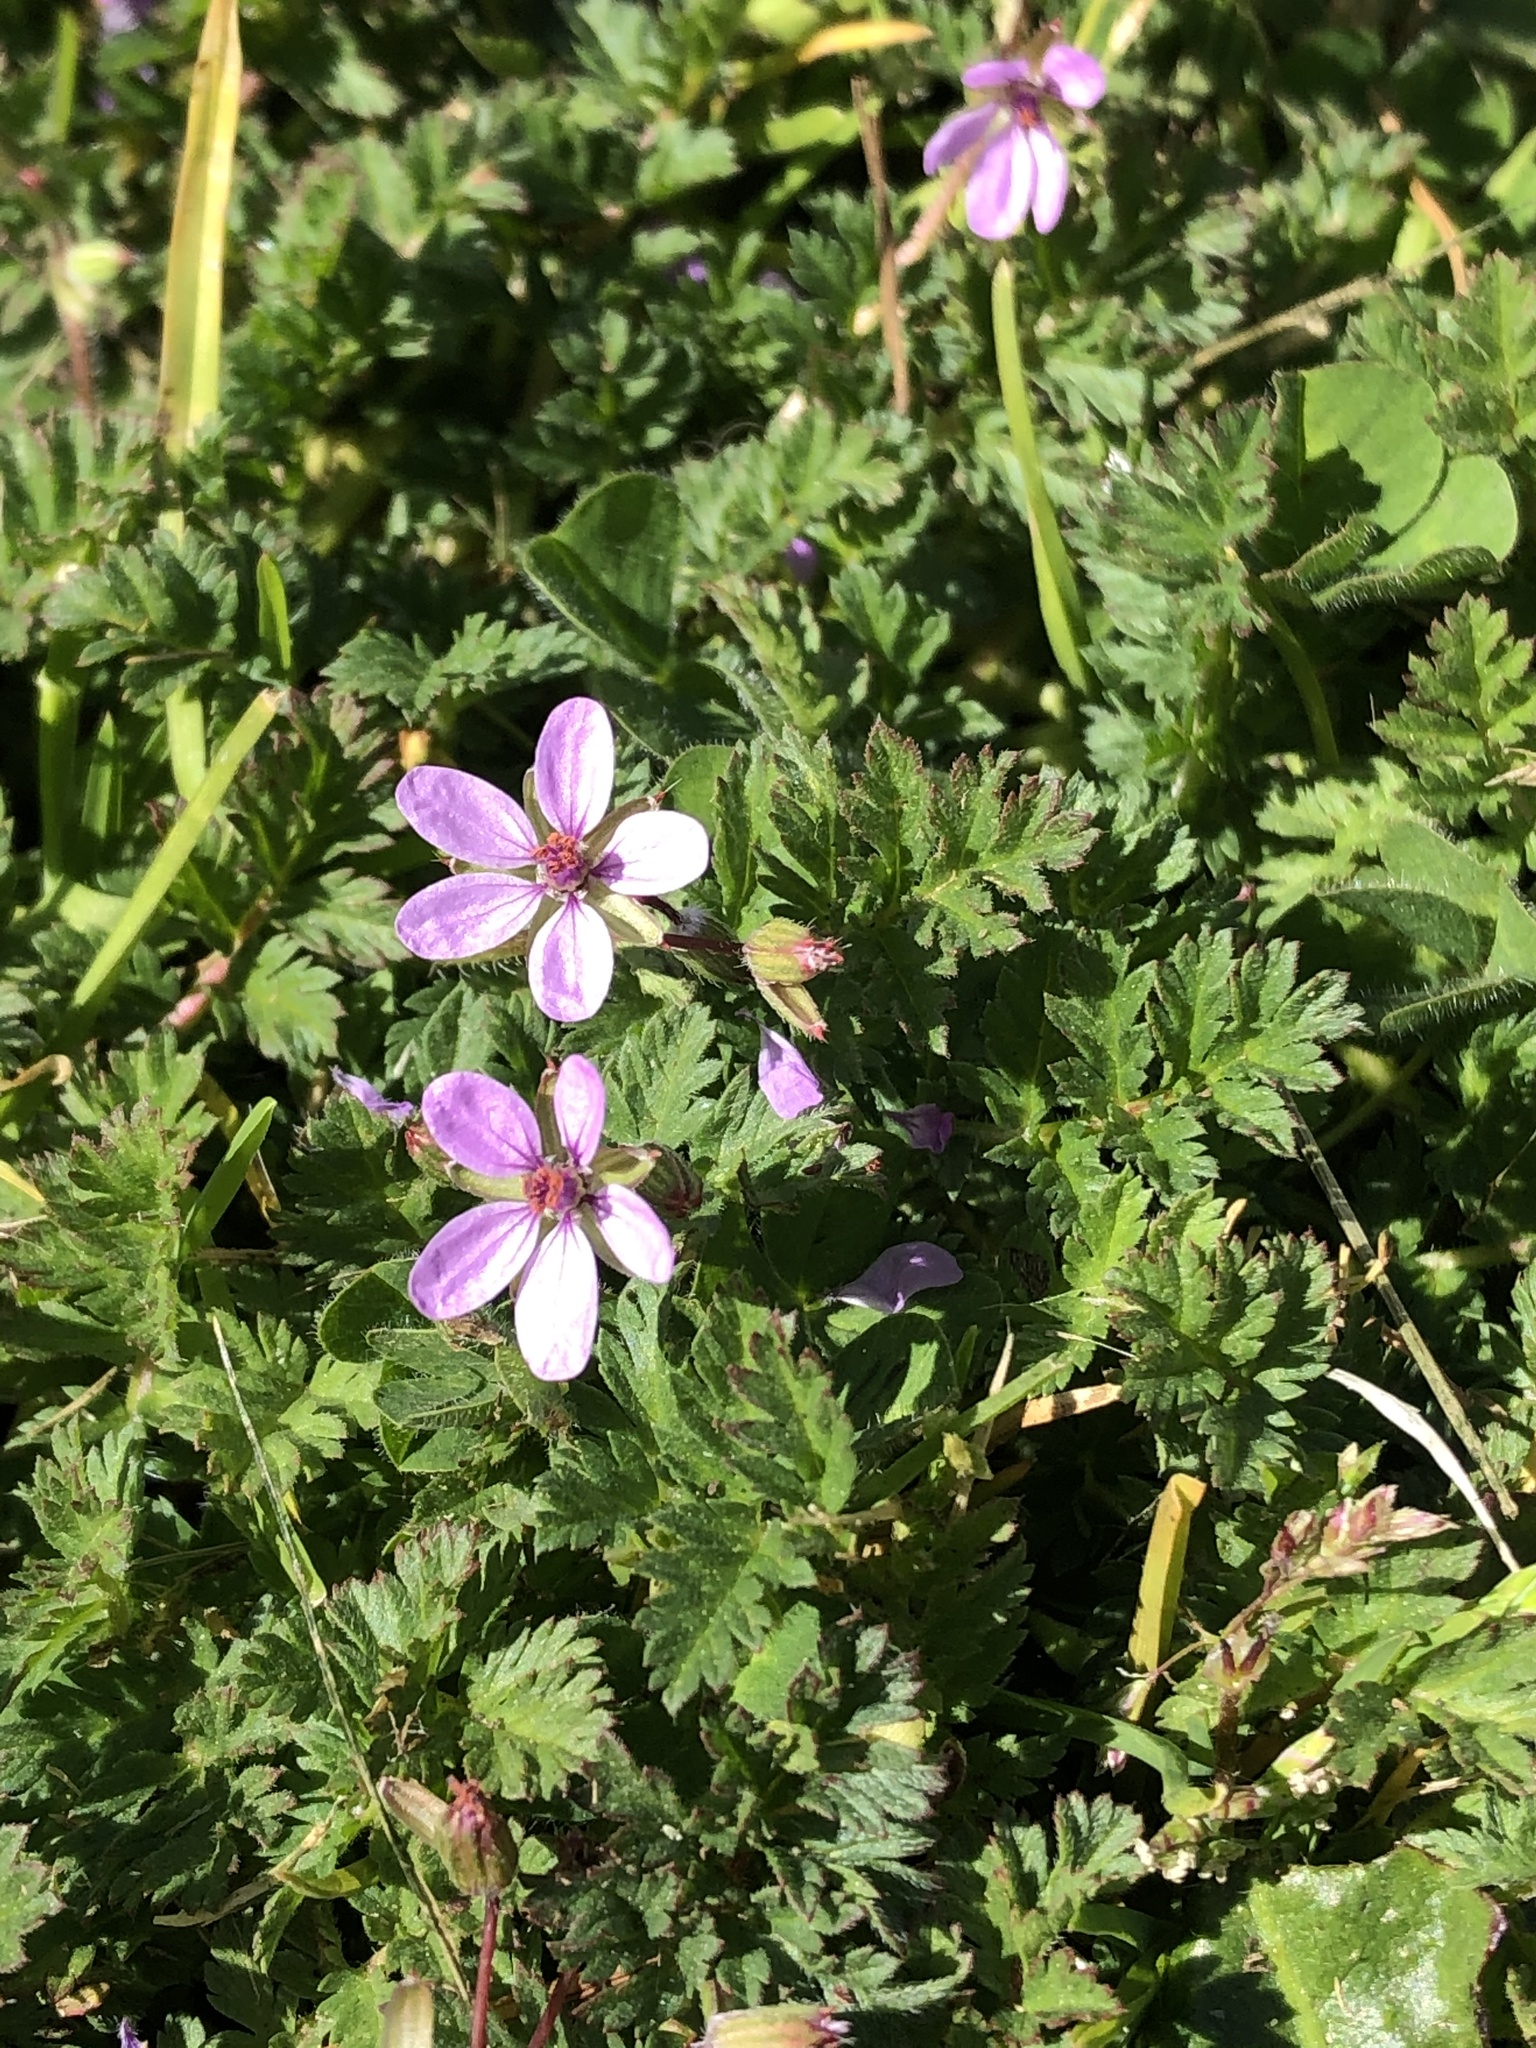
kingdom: Plantae
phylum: Tracheophyta
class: Magnoliopsida
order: Geraniales
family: Geraniaceae
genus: Erodium
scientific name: Erodium cicutarium
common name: Common stork's-bill
